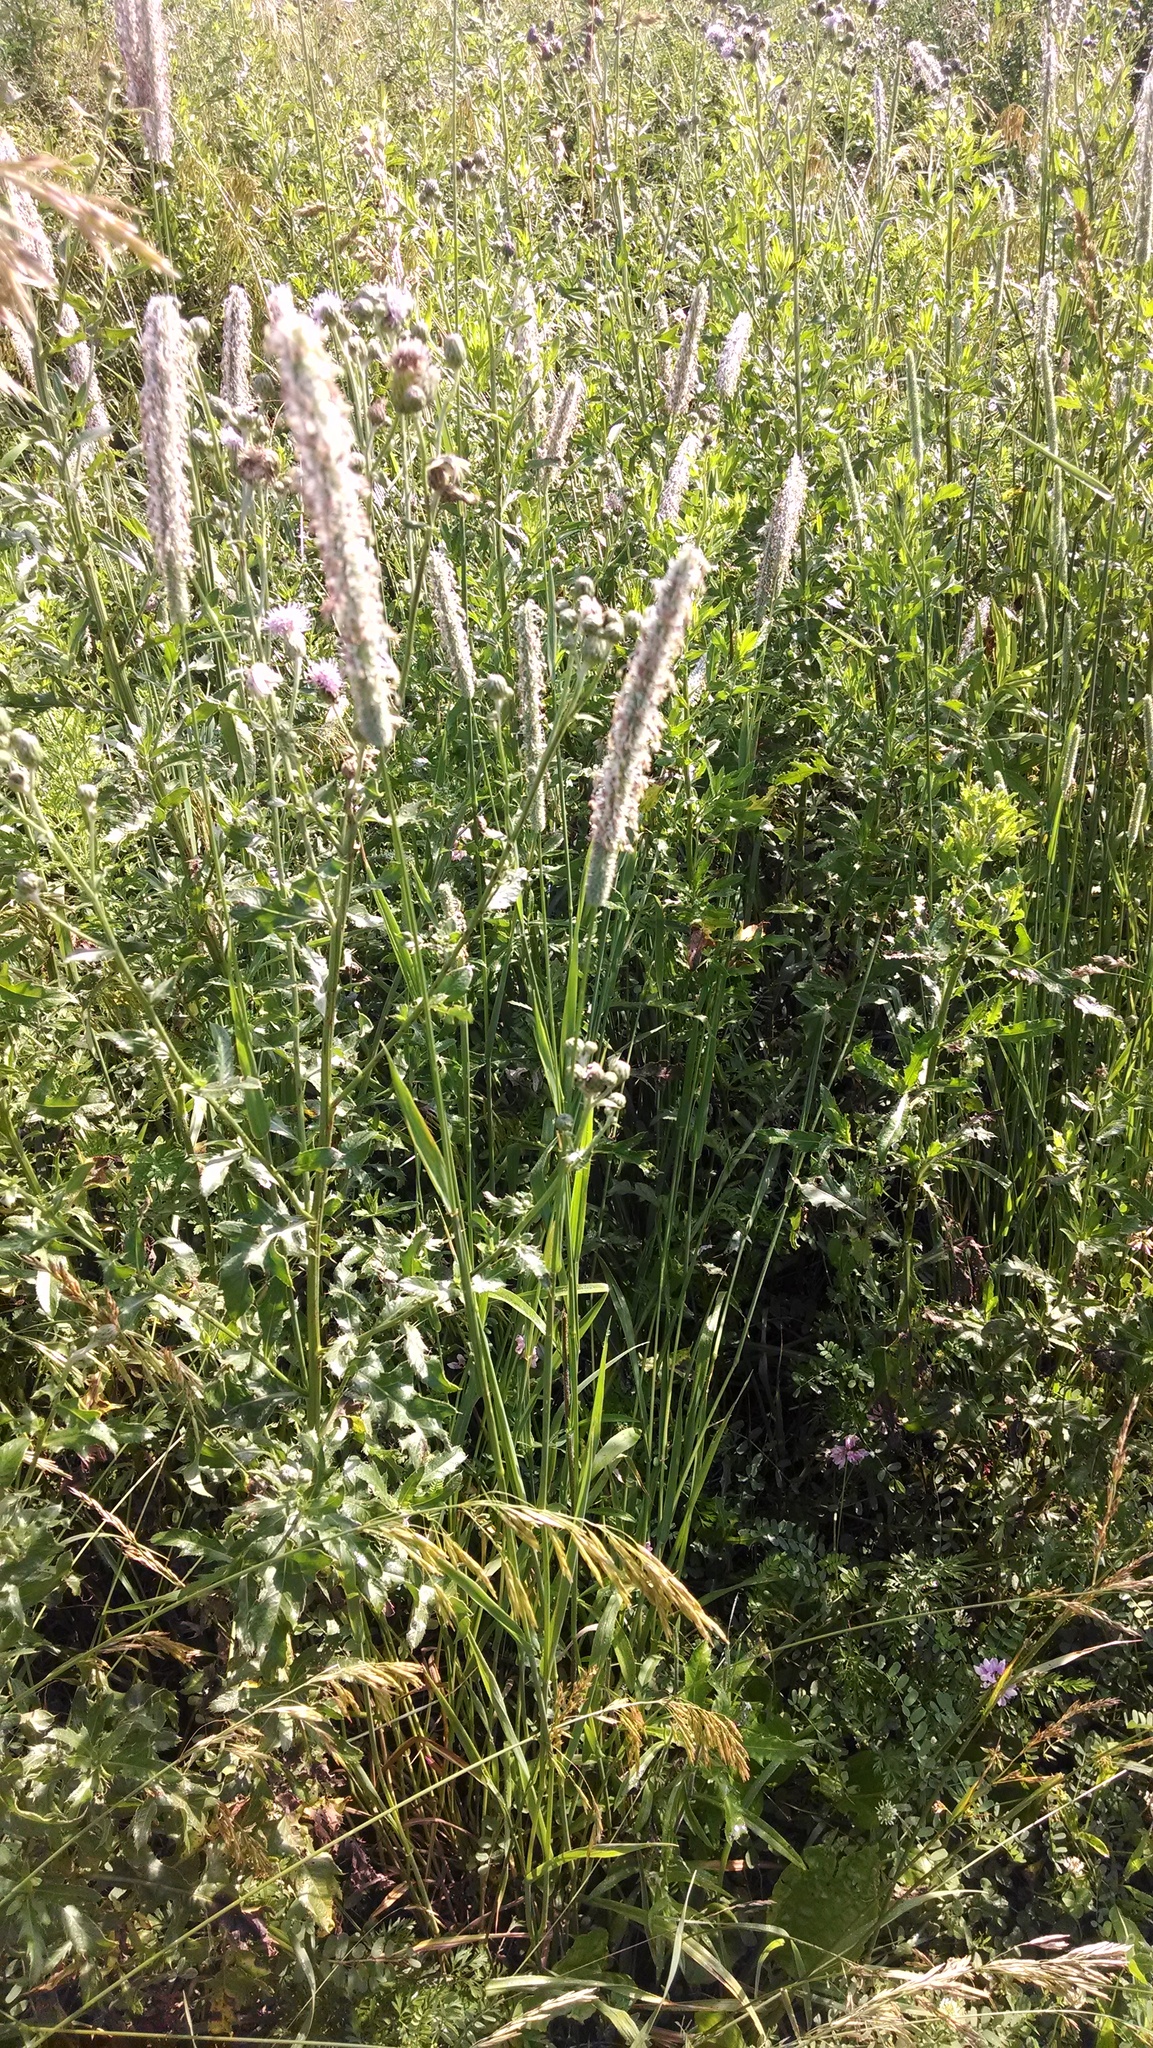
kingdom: Plantae
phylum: Tracheophyta
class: Liliopsida
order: Poales
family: Poaceae
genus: Phleum
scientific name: Phleum pratense
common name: Timothy grass
